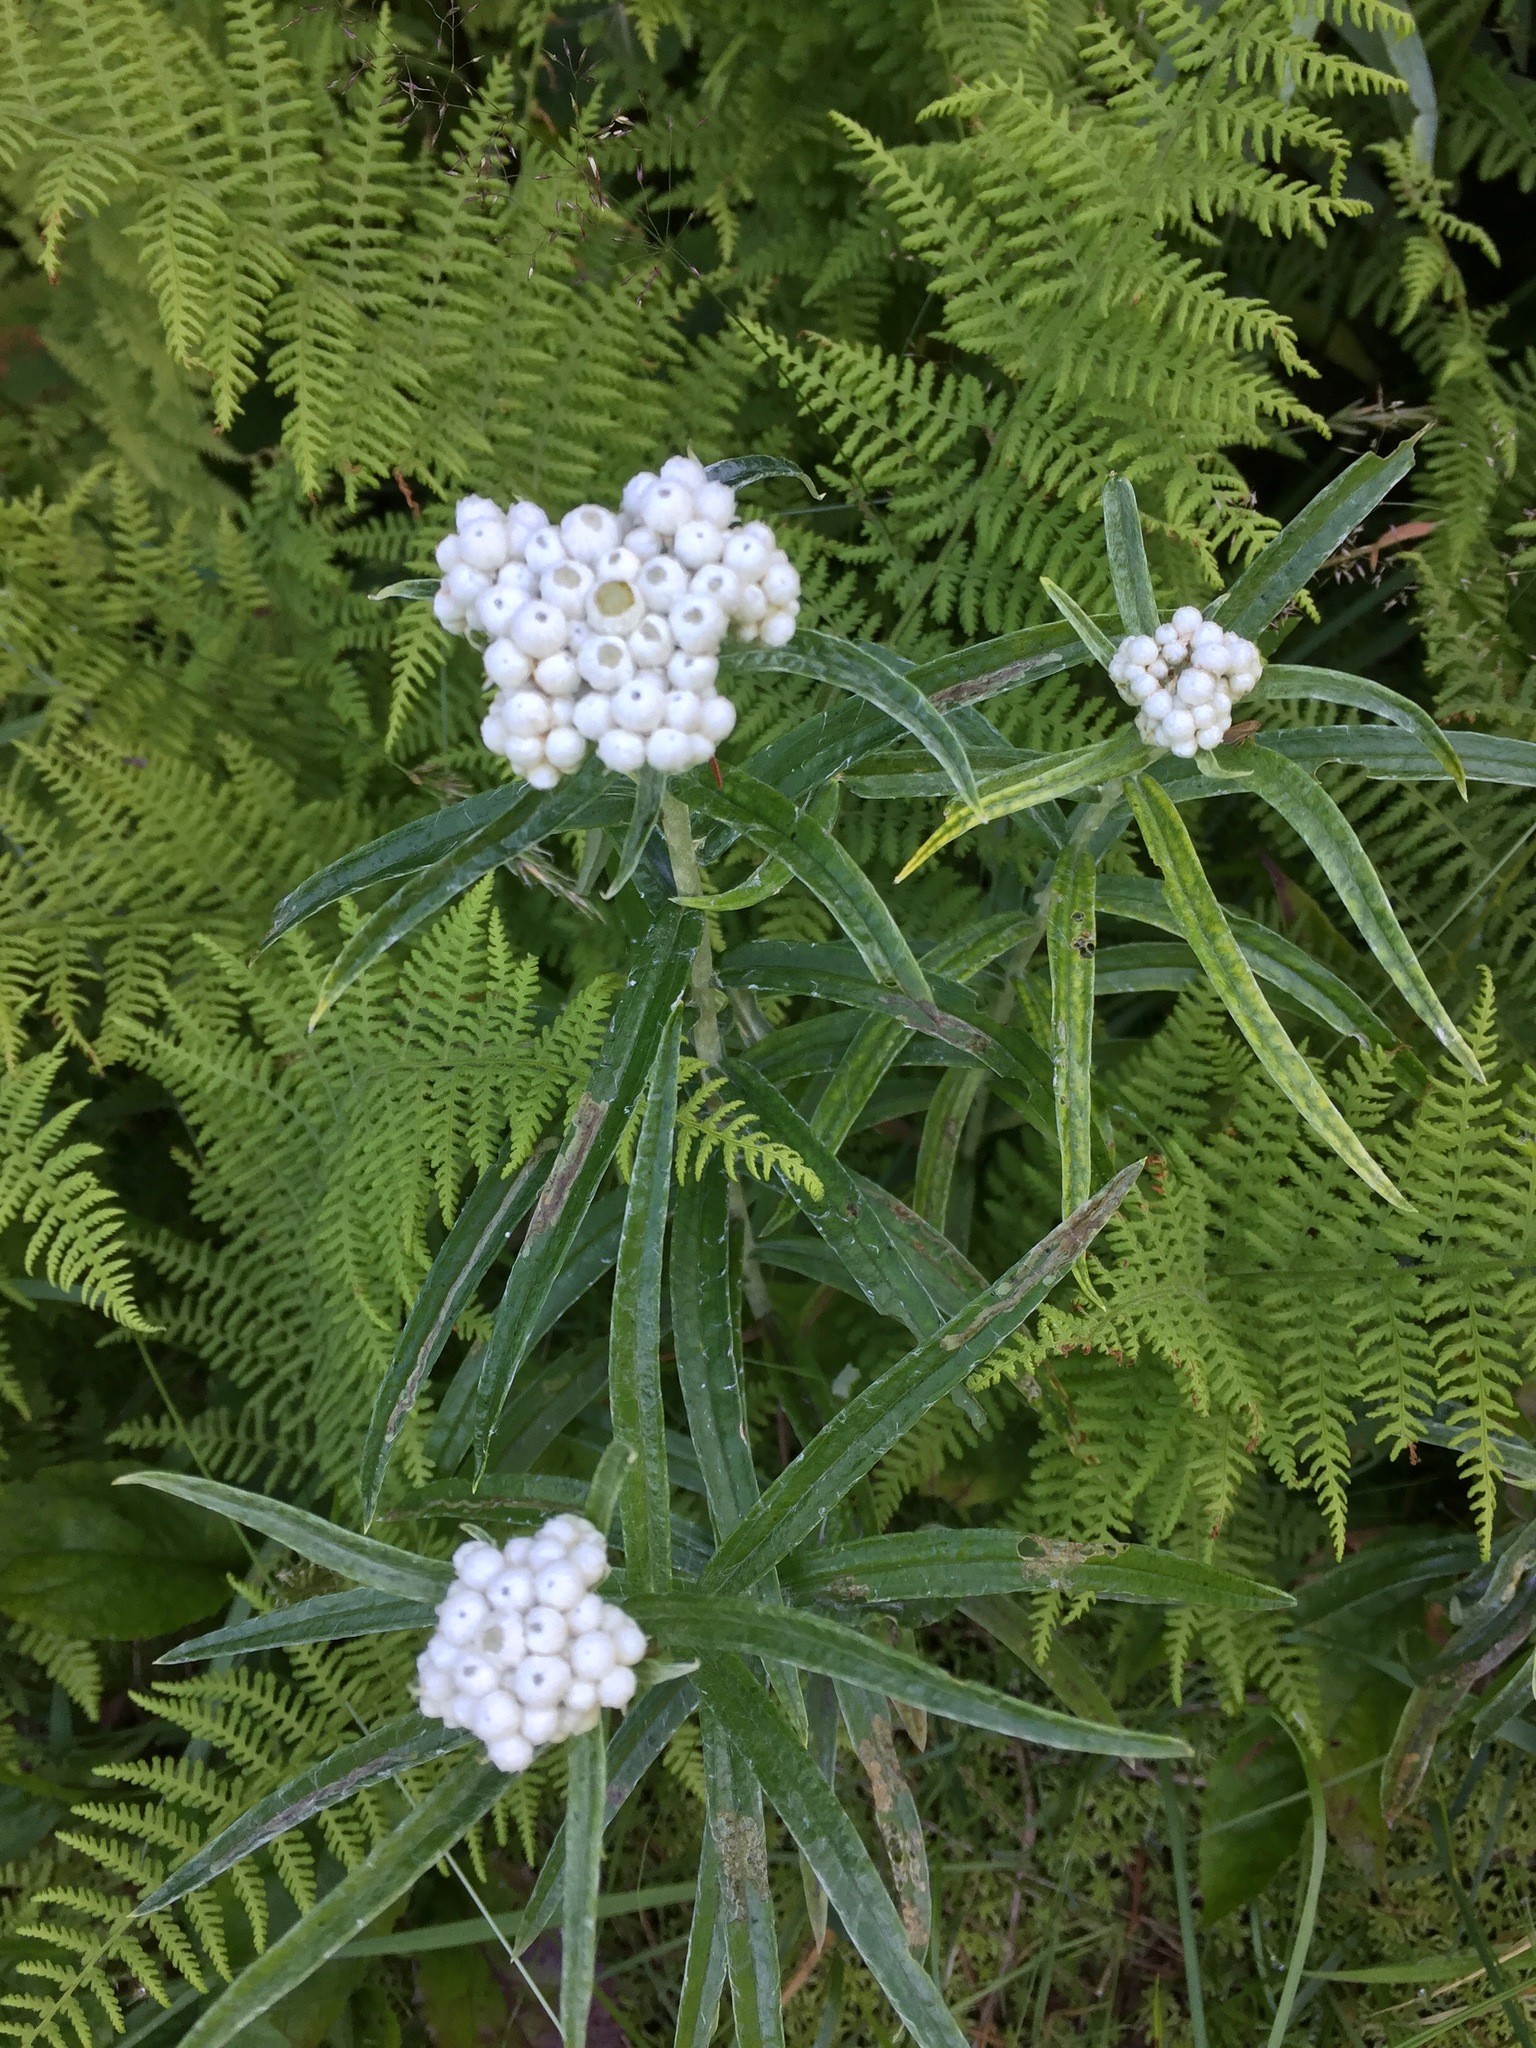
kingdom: Plantae
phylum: Tracheophyta
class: Magnoliopsida
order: Asterales
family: Asteraceae
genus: Anaphalis
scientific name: Anaphalis margaritacea
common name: Pearly everlasting
